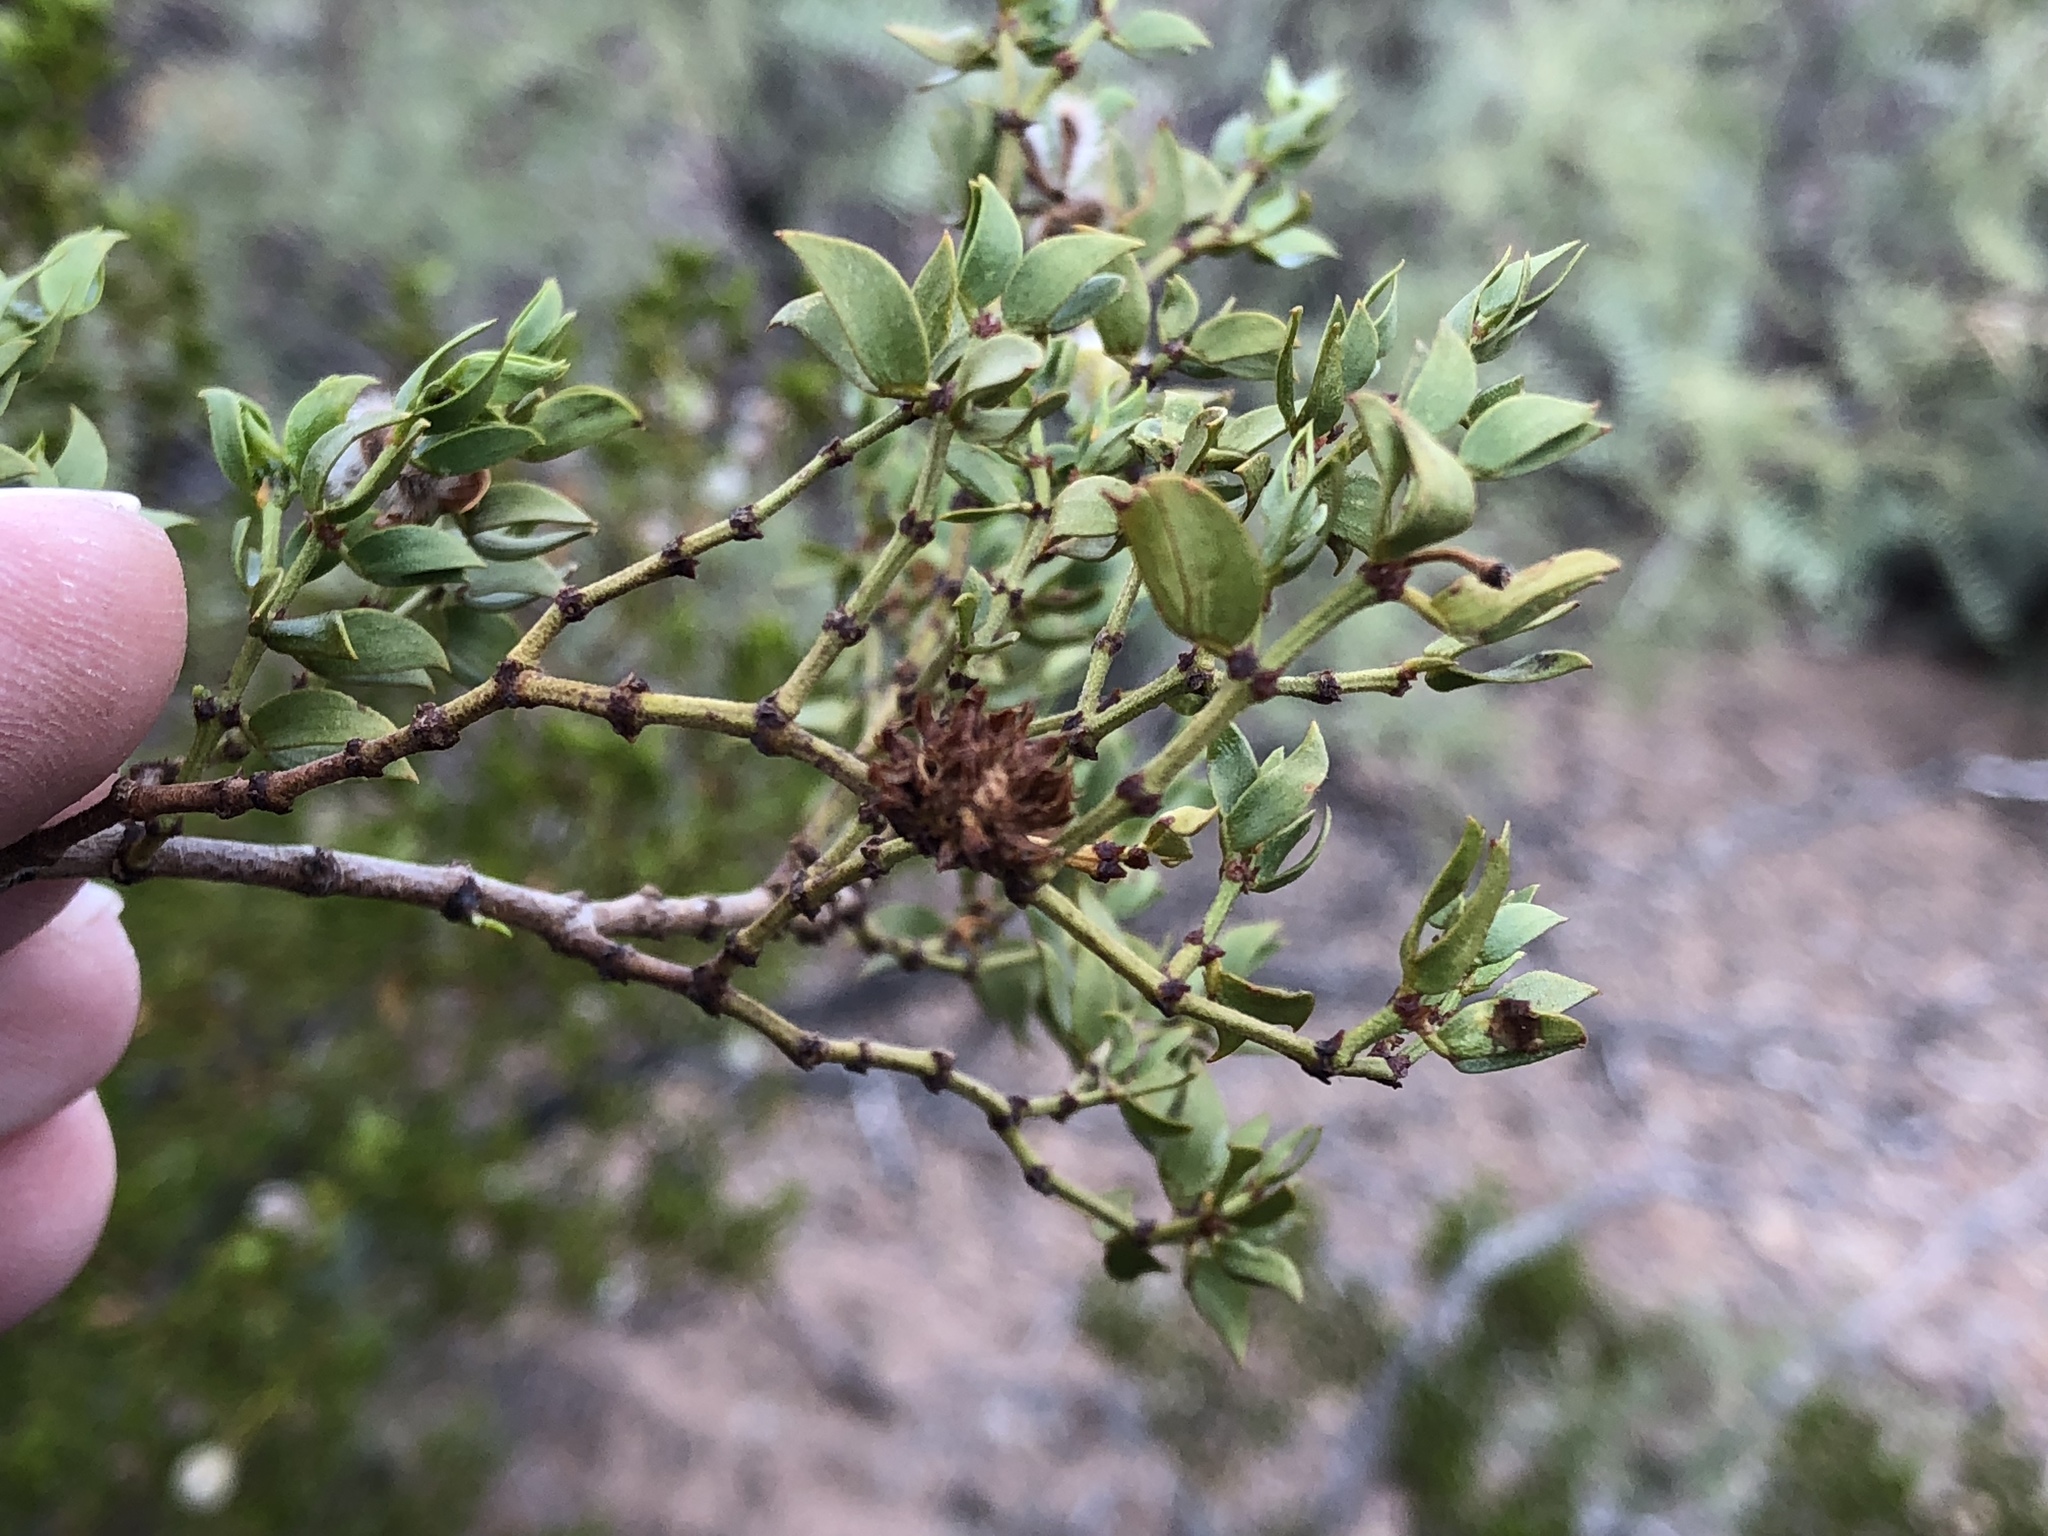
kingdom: Animalia
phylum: Arthropoda
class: Insecta
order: Diptera
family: Cecidomyiidae
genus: Asphondylia
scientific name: Asphondylia foliosa
